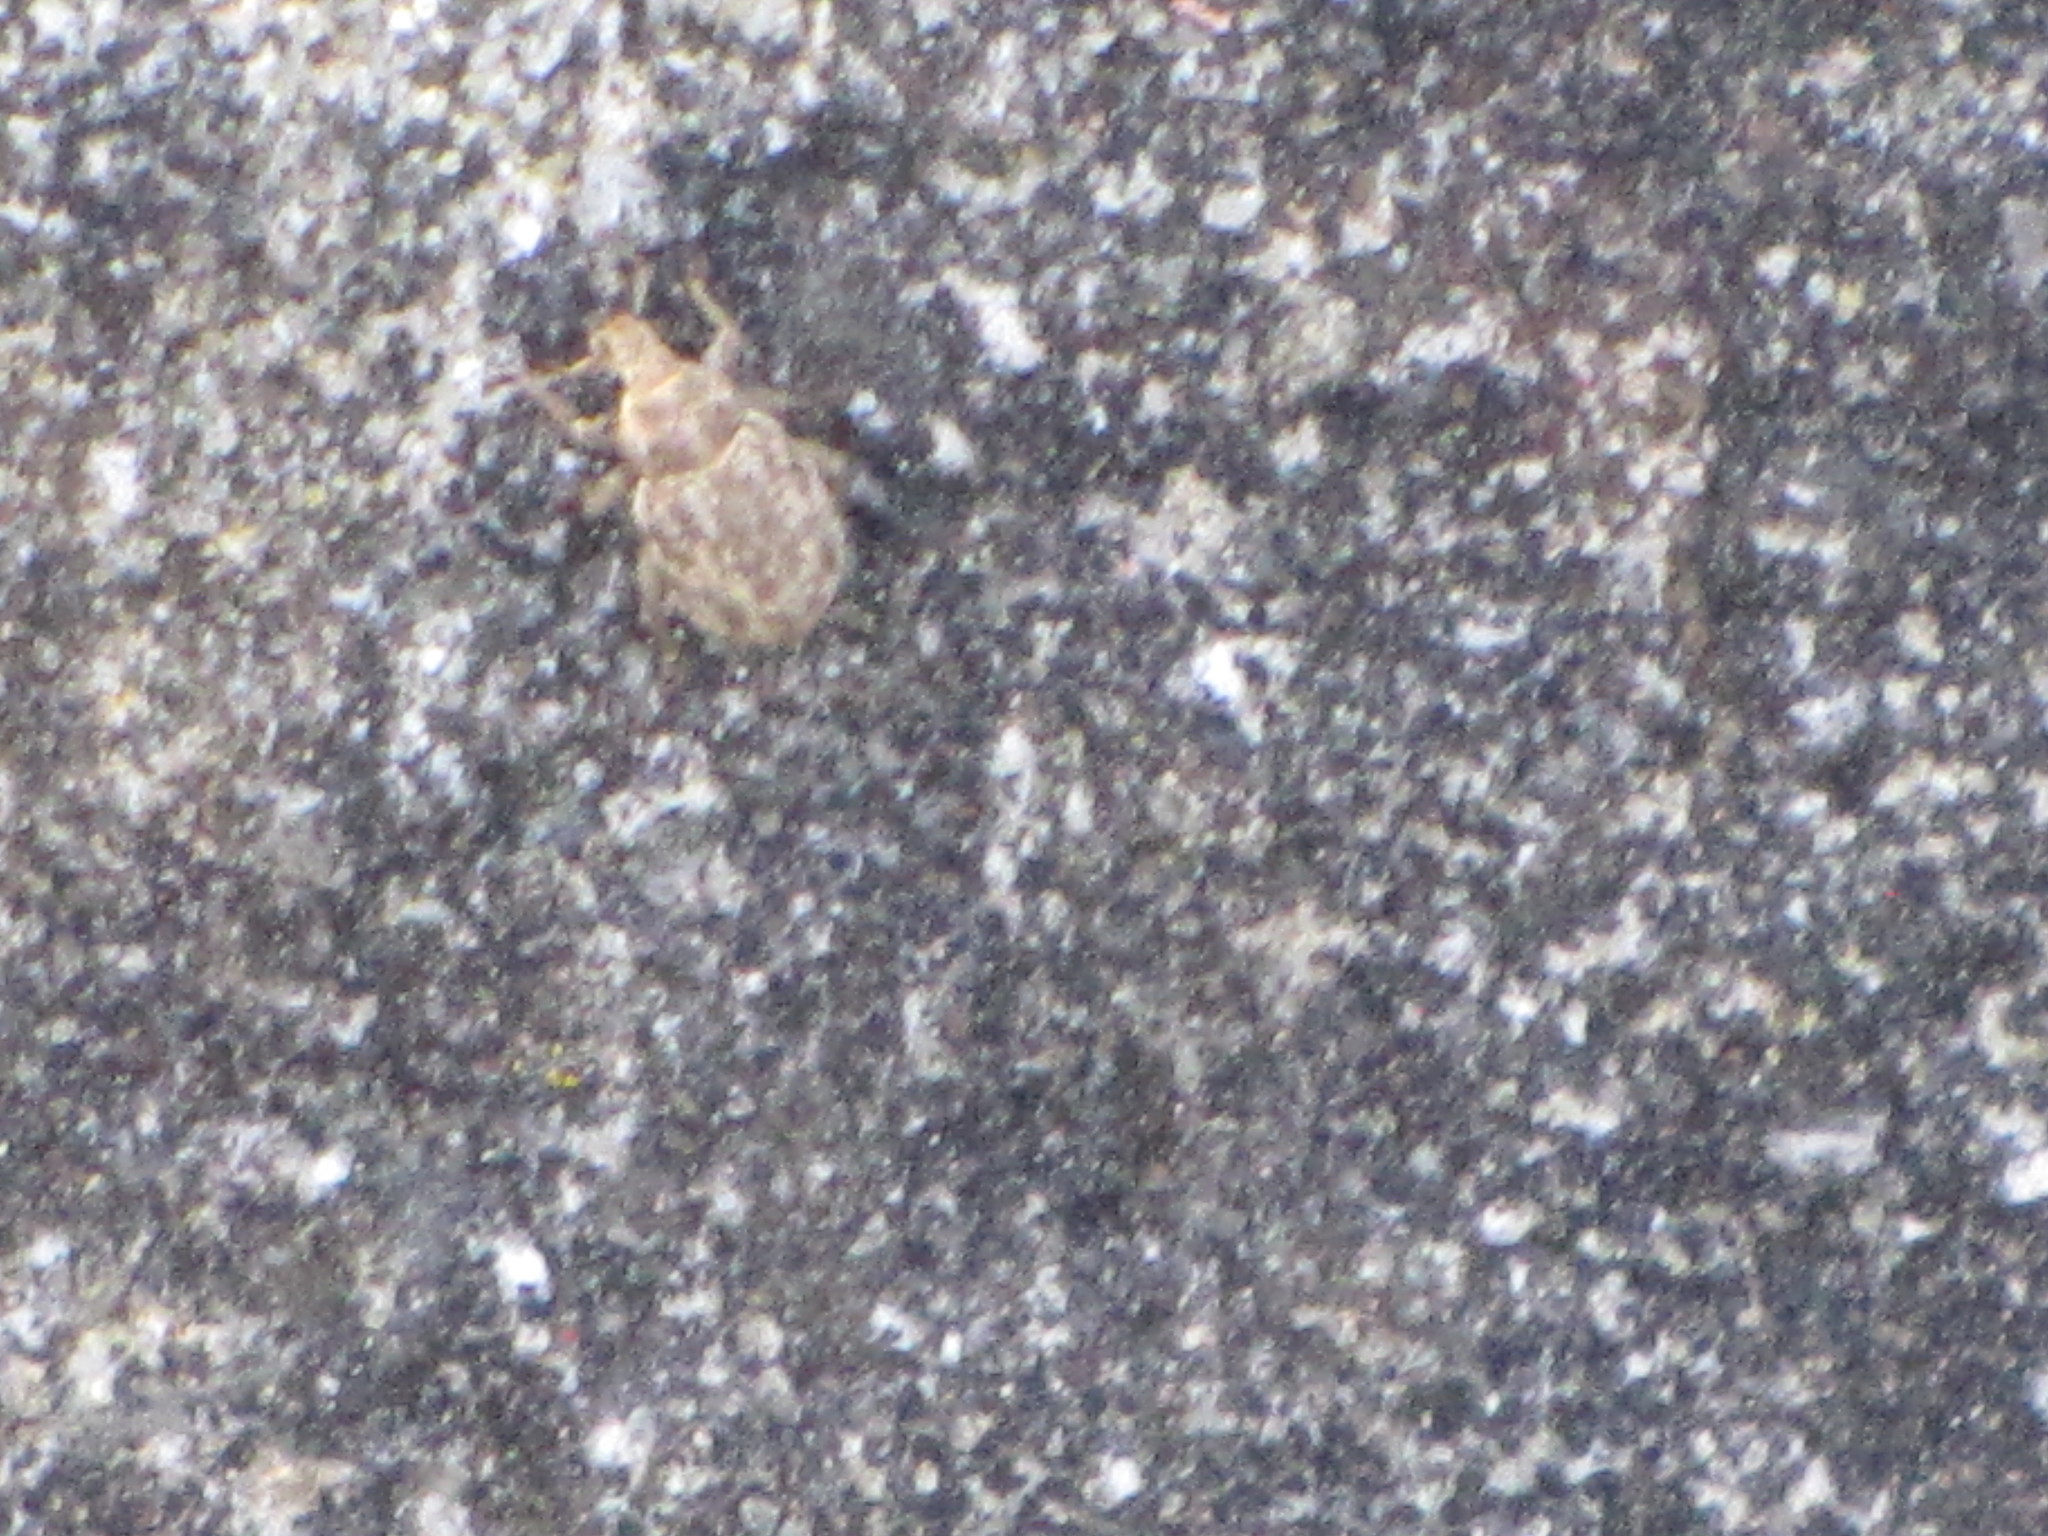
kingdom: Animalia
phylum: Arthropoda
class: Insecta
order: Coleoptera
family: Curculionidae
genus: Romualdius
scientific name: Romualdius scaber
